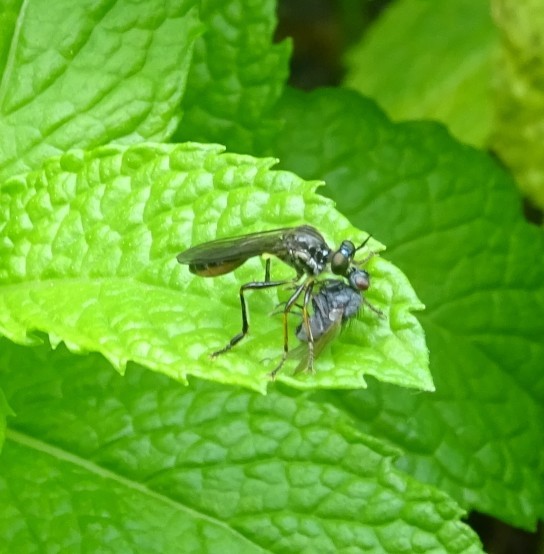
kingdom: Animalia
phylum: Arthropoda
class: Insecta
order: Diptera
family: Asilidae
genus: Dioctria
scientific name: Dioctria hyalipennis
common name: Stripe-legged robberfly
